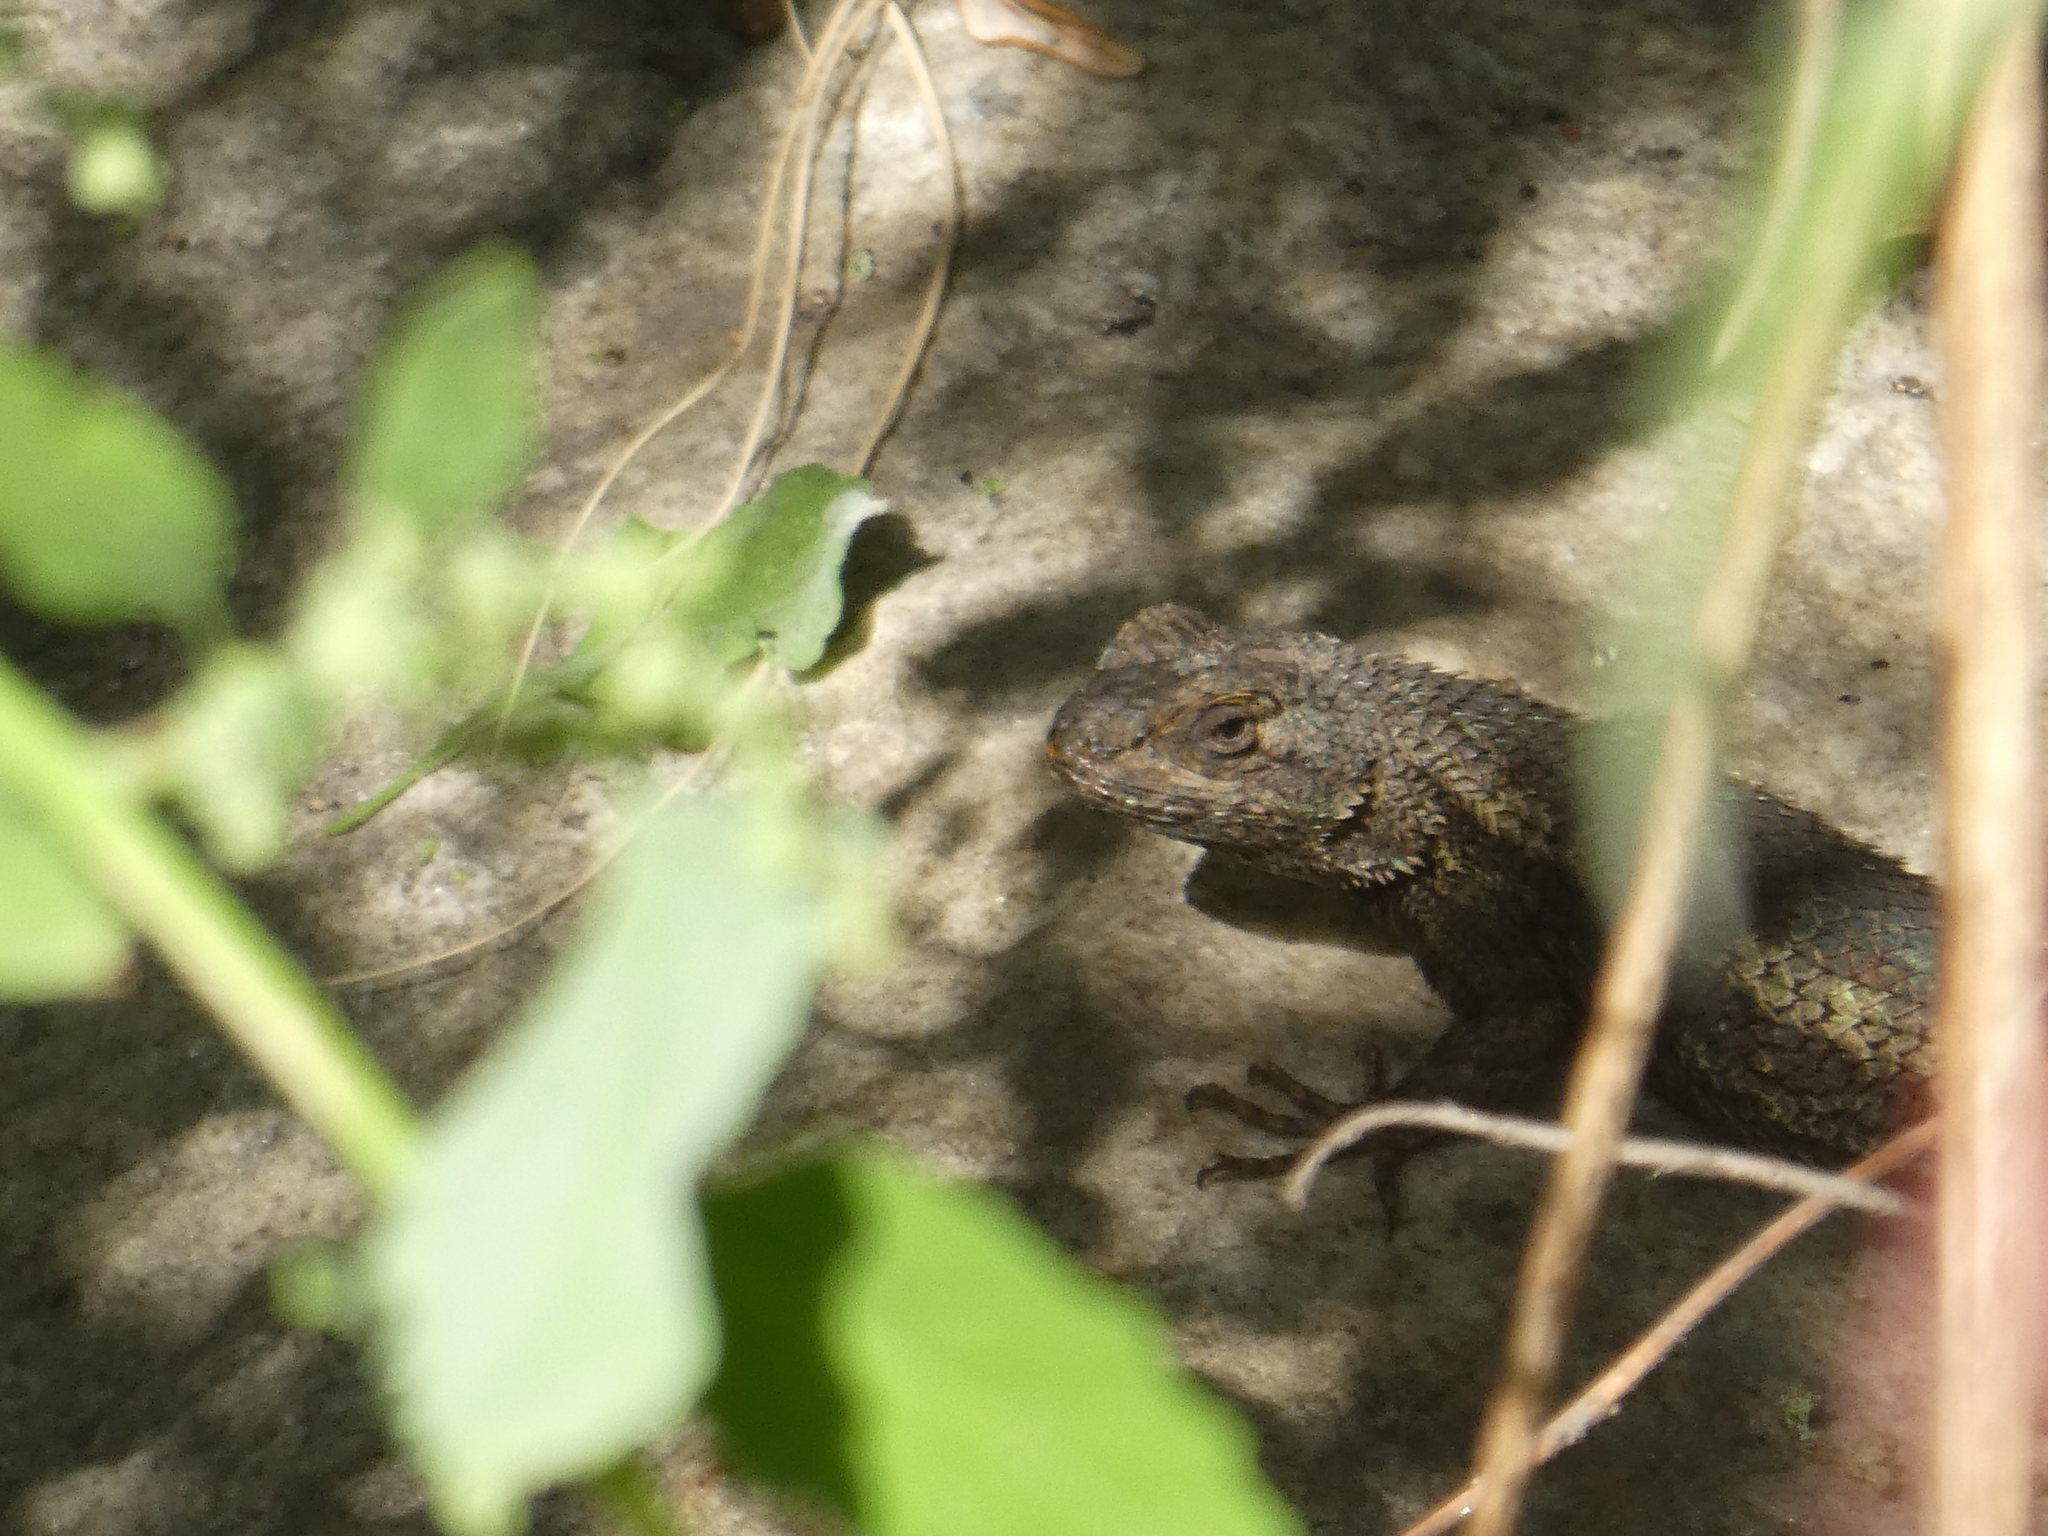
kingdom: Animalia
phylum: Chordata
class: Squamata
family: Phrynosomatidae
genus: Sceloporus
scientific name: Sceloporus occidentalis
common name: Western fence lizard
